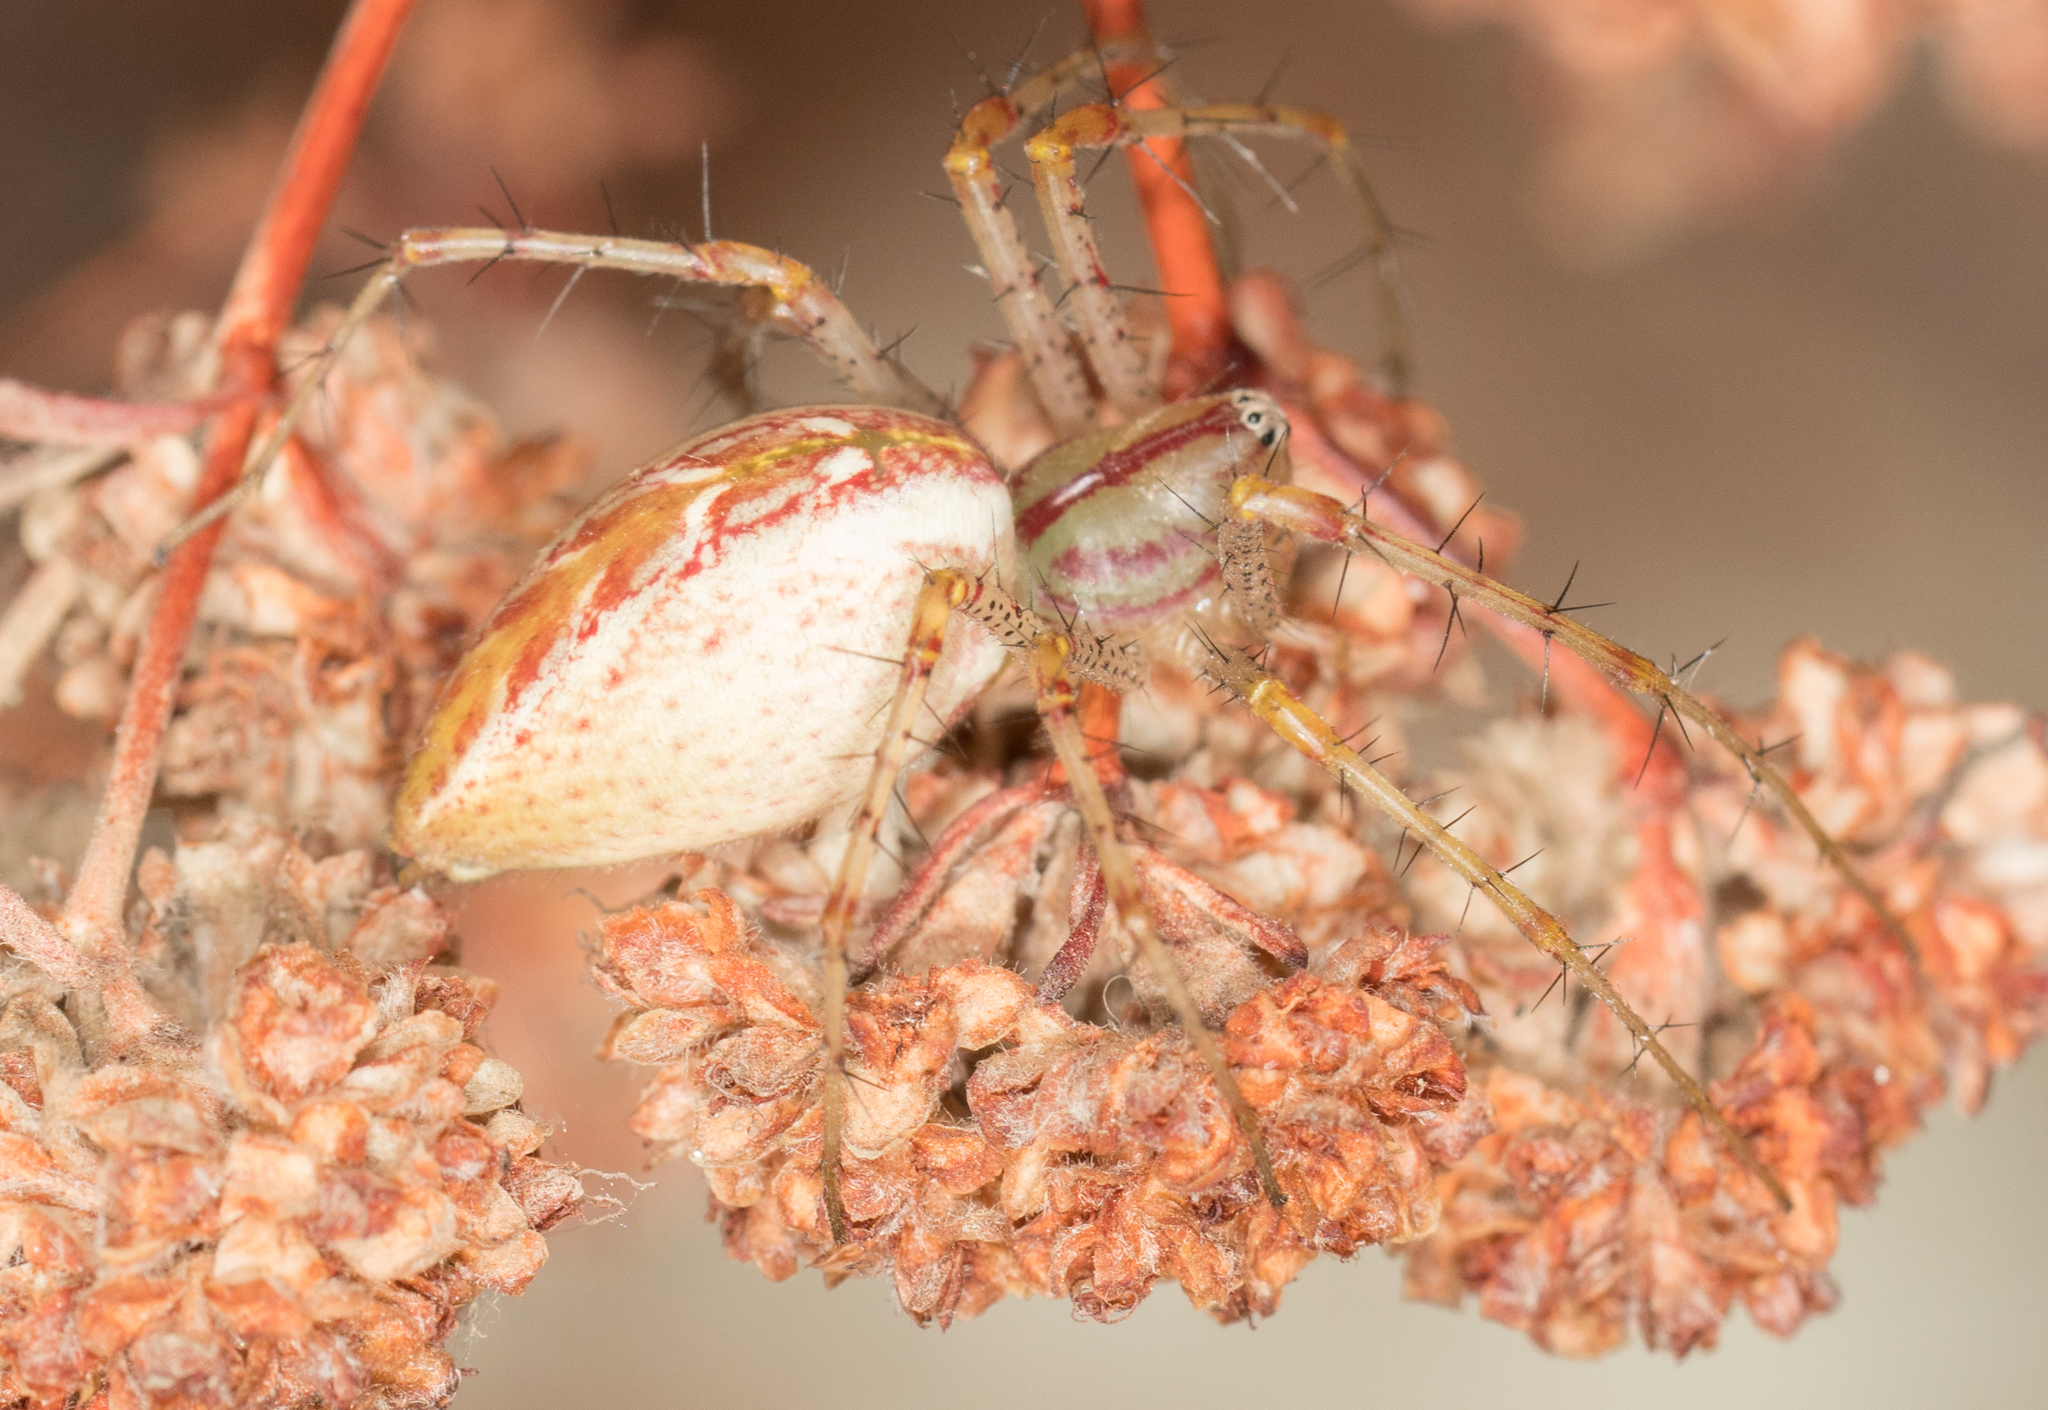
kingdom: Animalia
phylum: Arthropoda
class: Arachnida
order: Araneae
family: Oxyopidae
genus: Peucetia
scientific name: Peucetia viridans
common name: Lynx spiders
